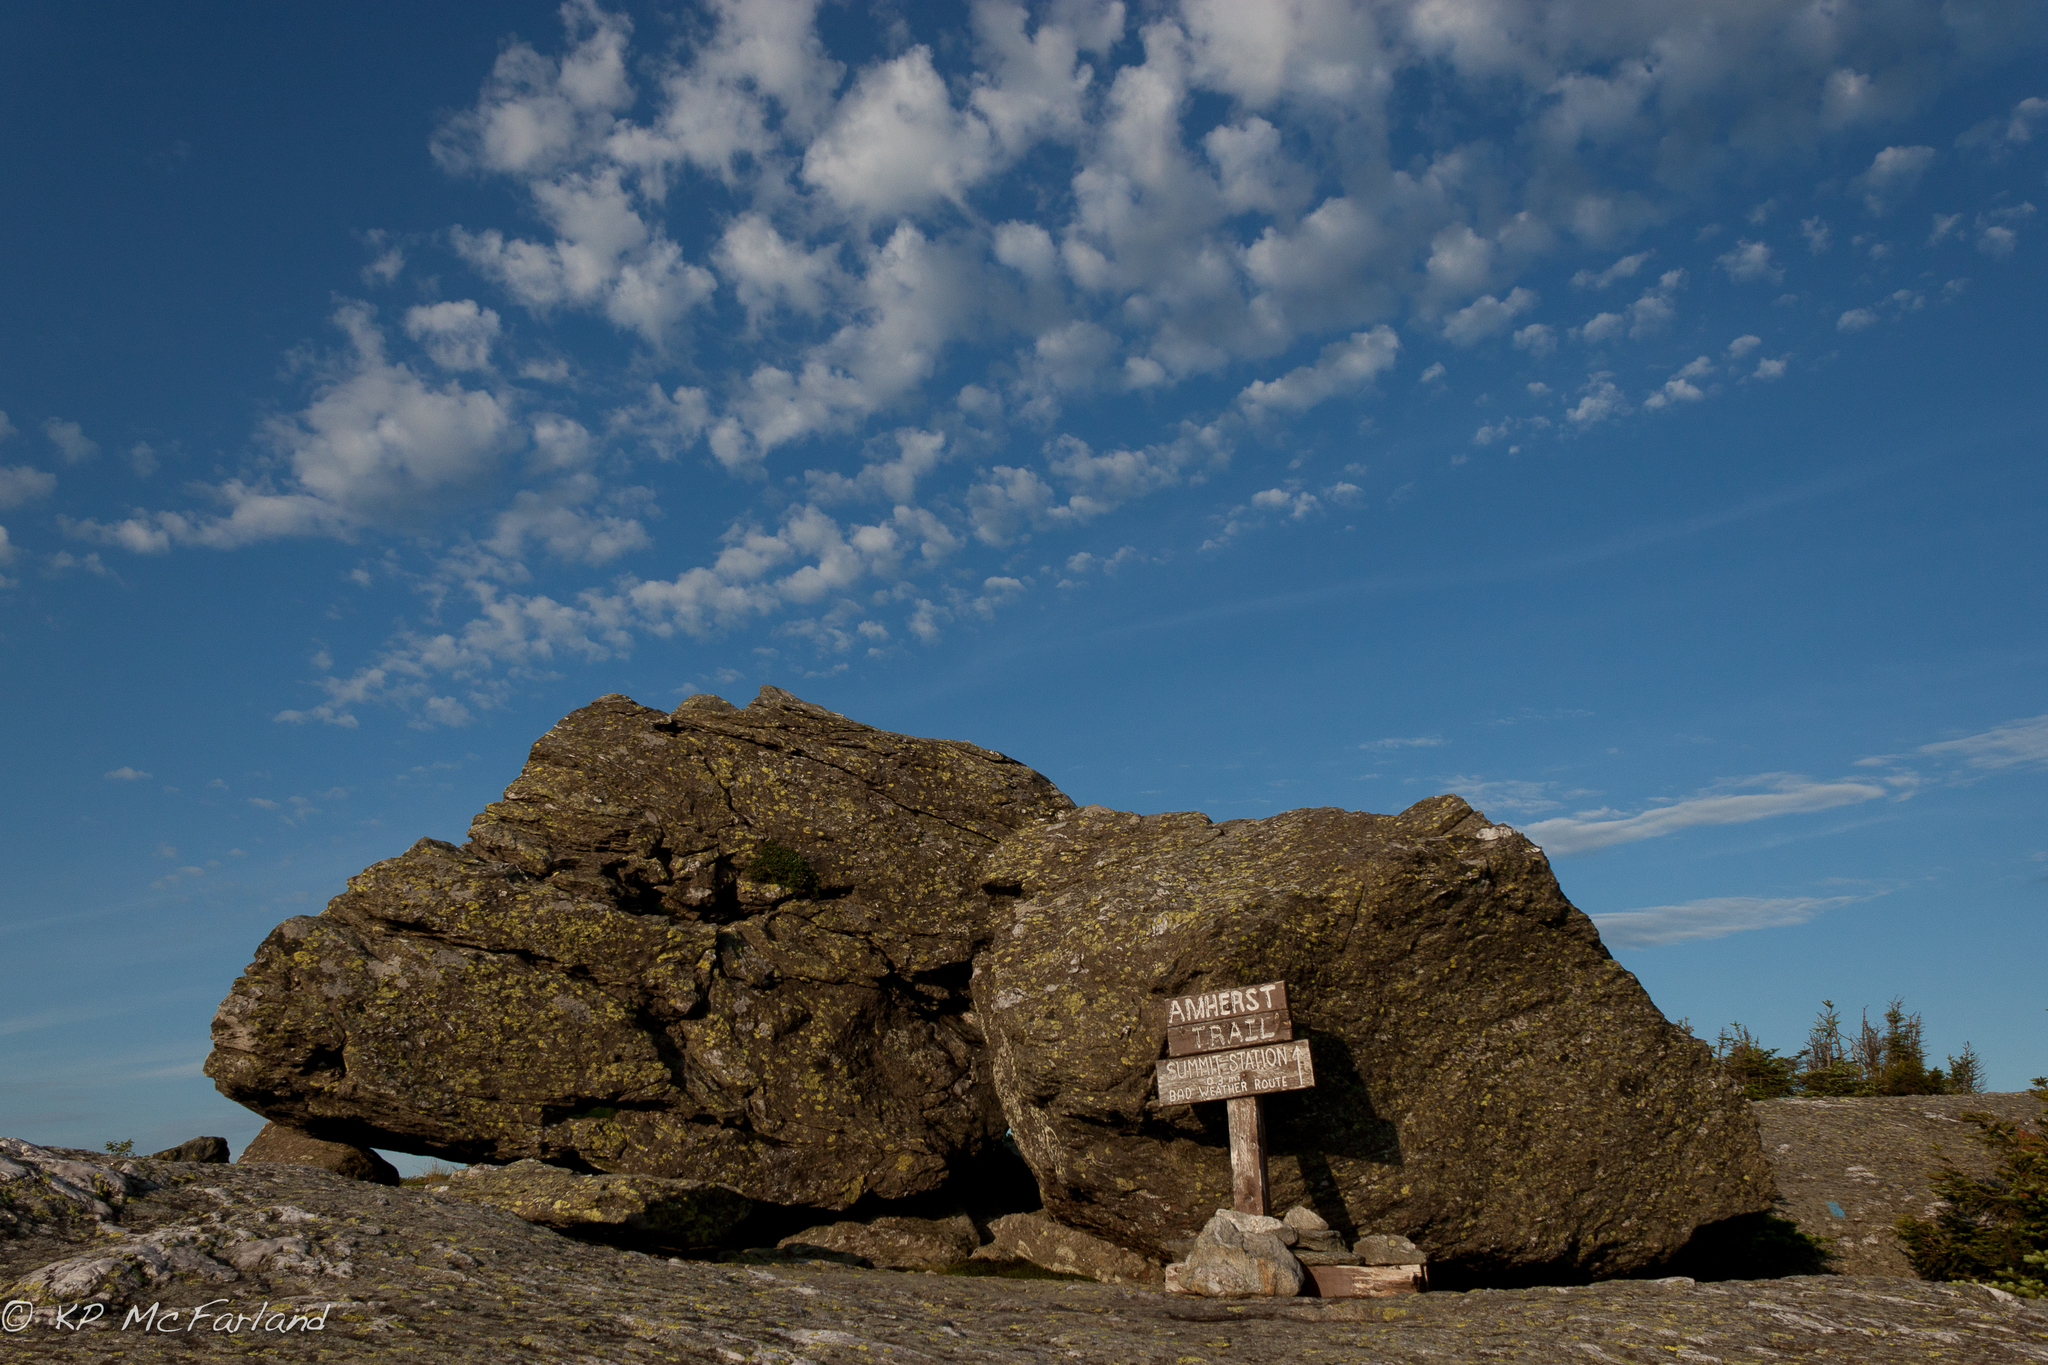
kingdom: Plantae
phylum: Tracheophyta
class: Magnoliopsida
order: Malpighiales
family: Salicaceae
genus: Salix
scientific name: Salix uva-ursi
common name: Bearberry willow
